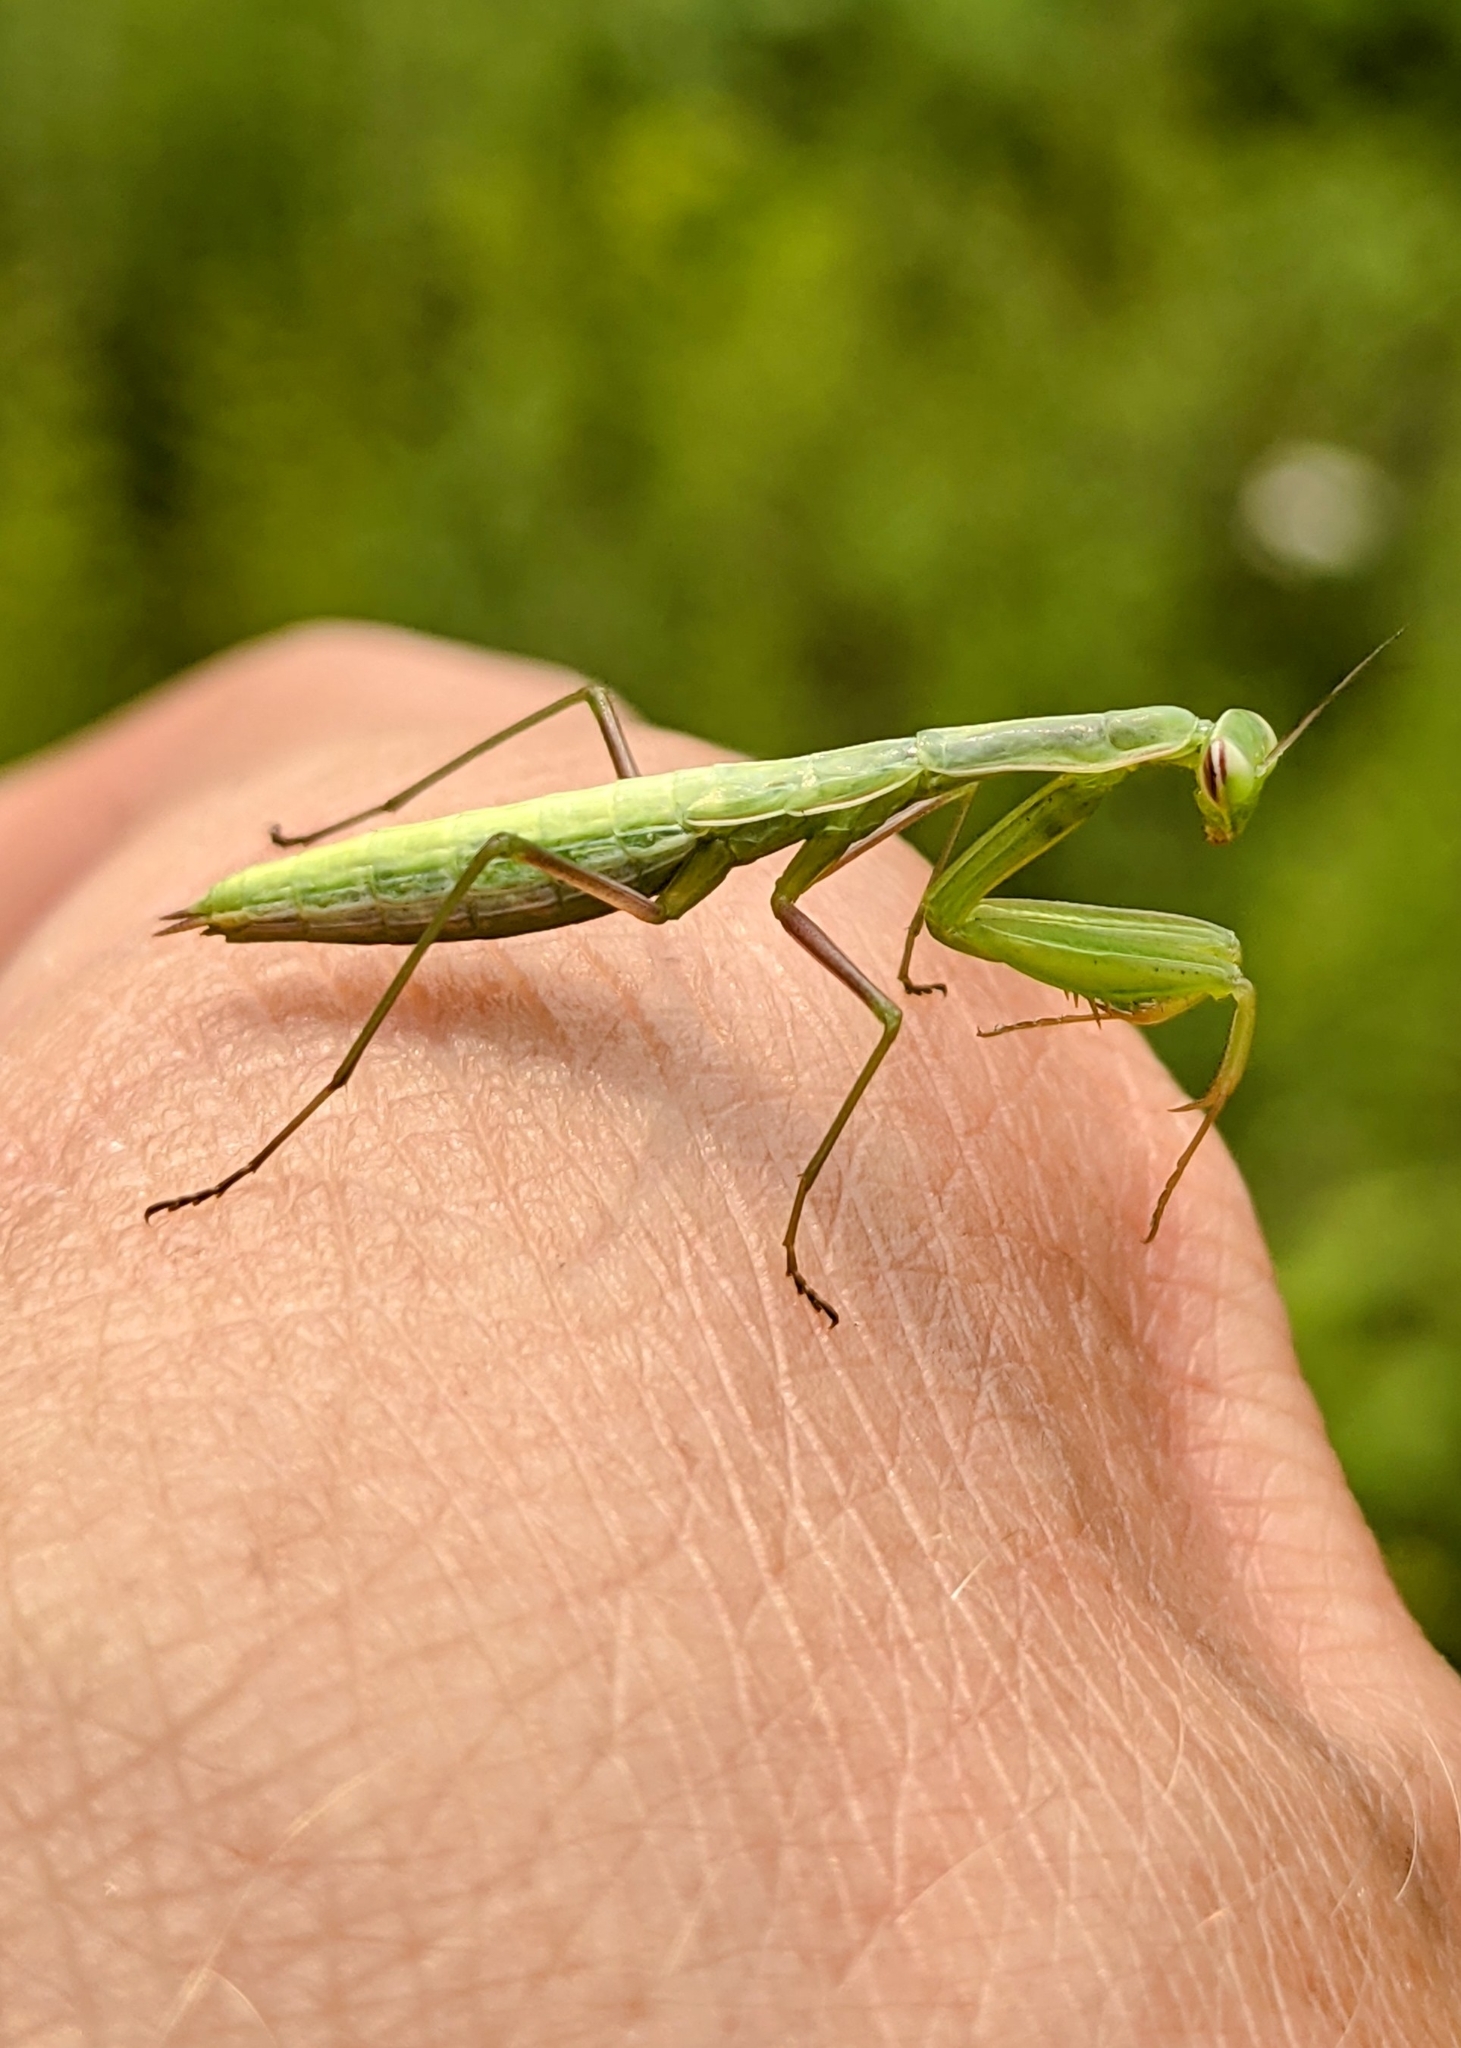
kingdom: Animalia
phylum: Arthropoda
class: Insecta
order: Mantodea
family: Mantidae
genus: Mantis
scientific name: Mantis religiosa
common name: Praying mantis
